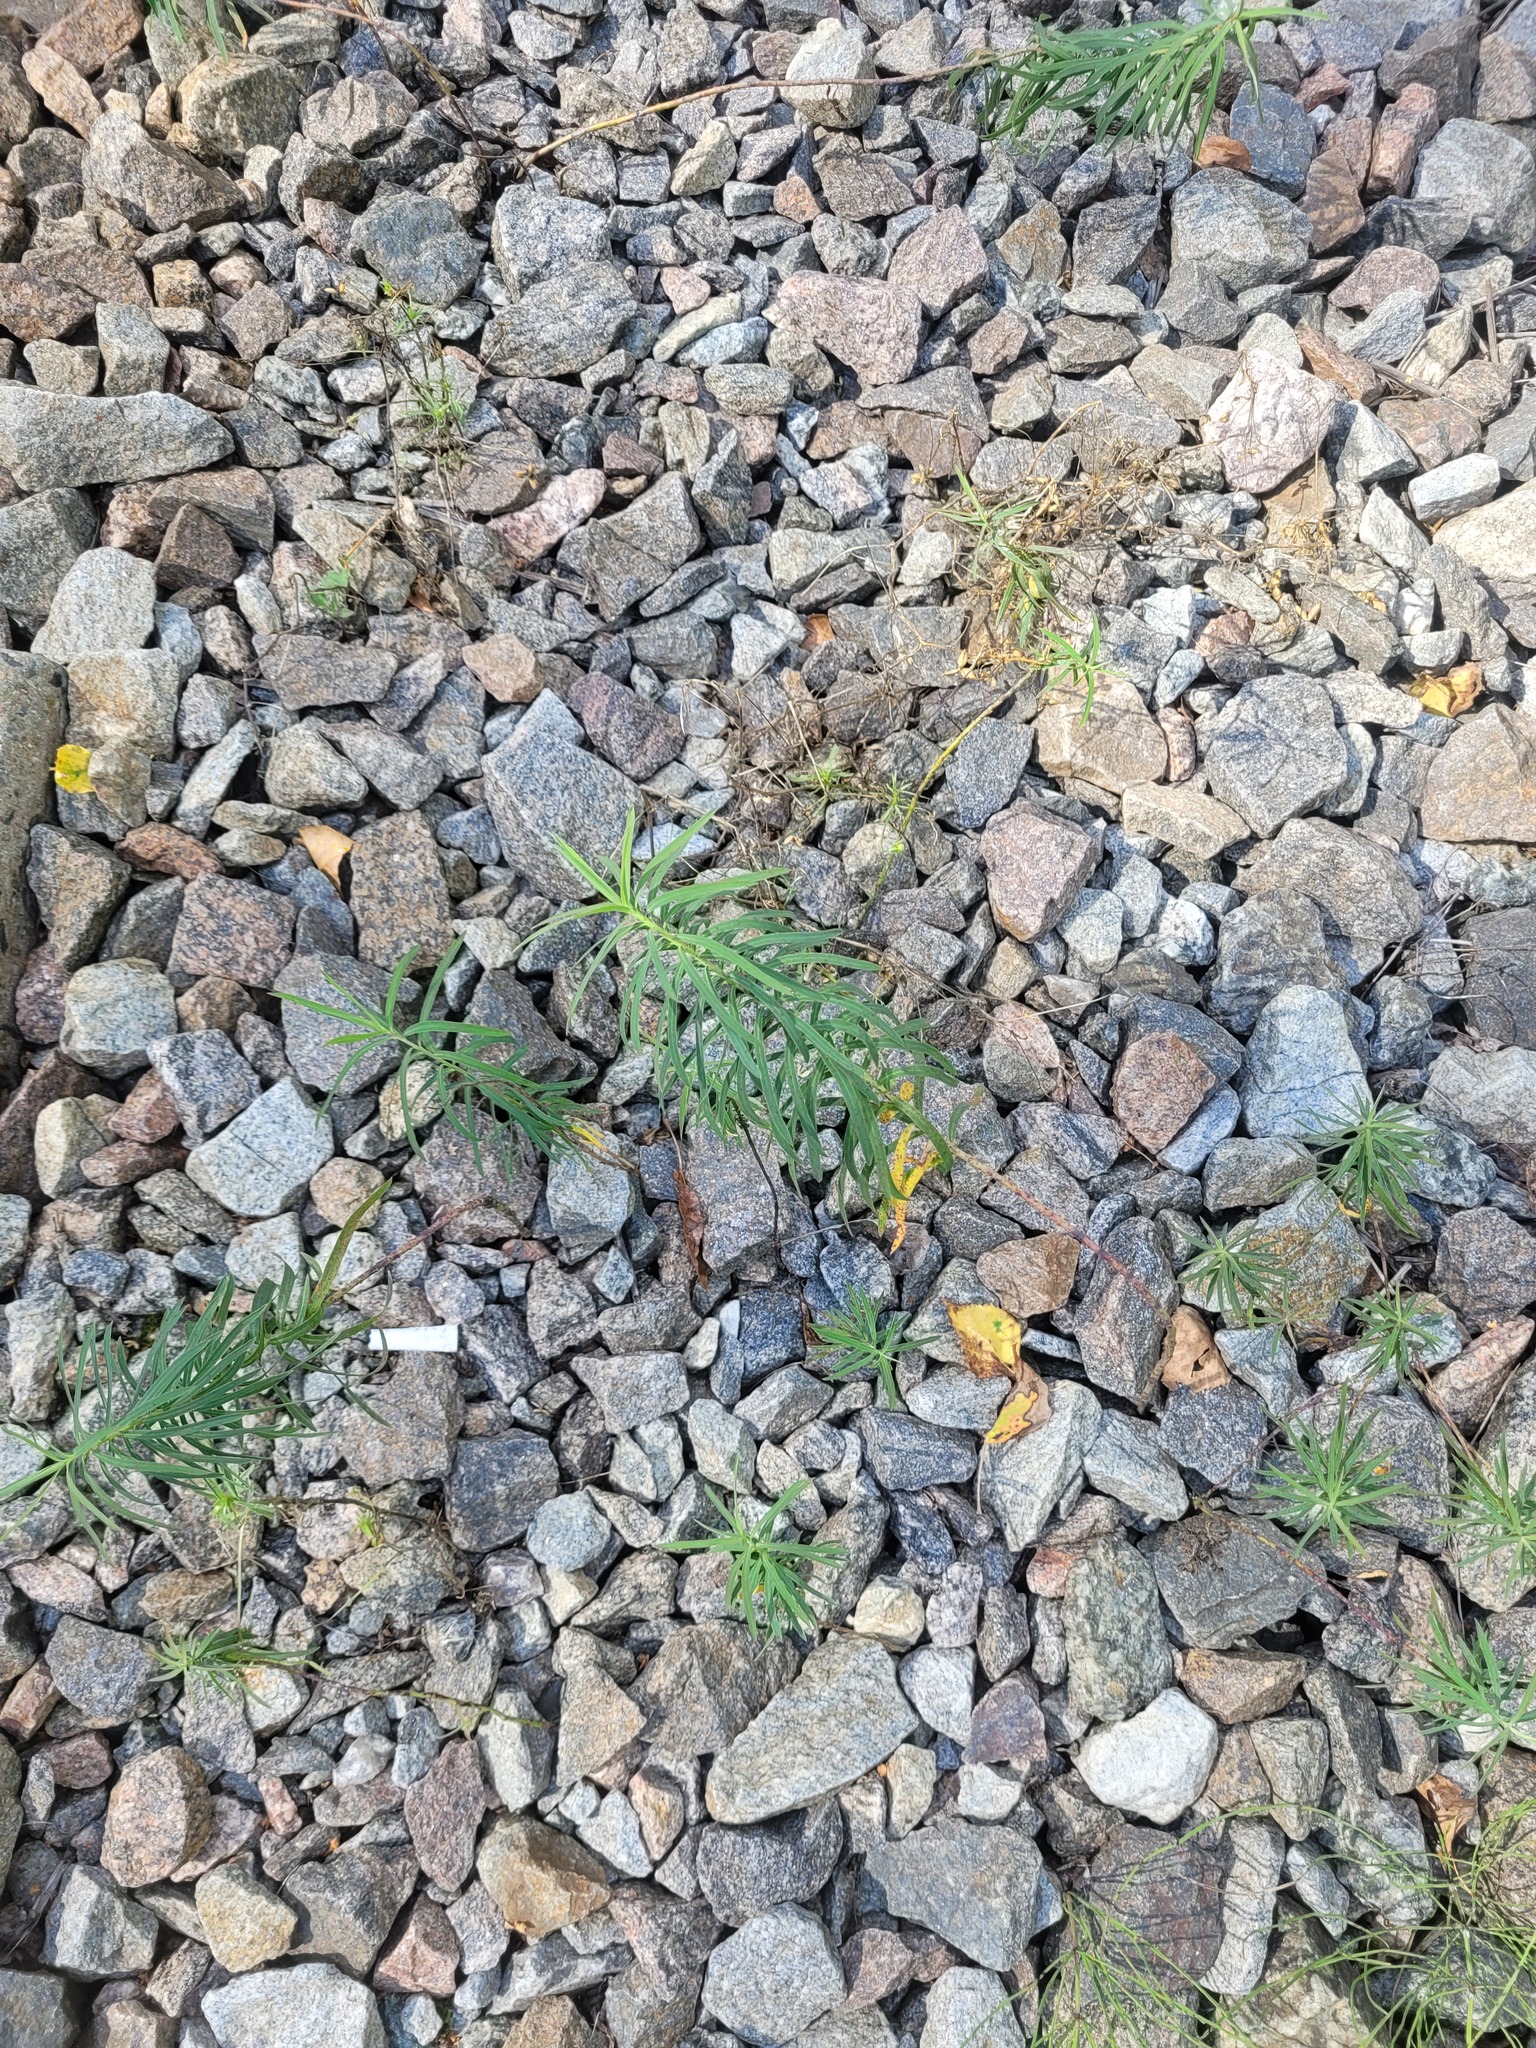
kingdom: Plantae
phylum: Tracheophyta
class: Magnoliopsida
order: Malpighiales
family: Euphorbiaceae
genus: Euphorbia
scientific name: Euphorbia virgata
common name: Leafy spurge
